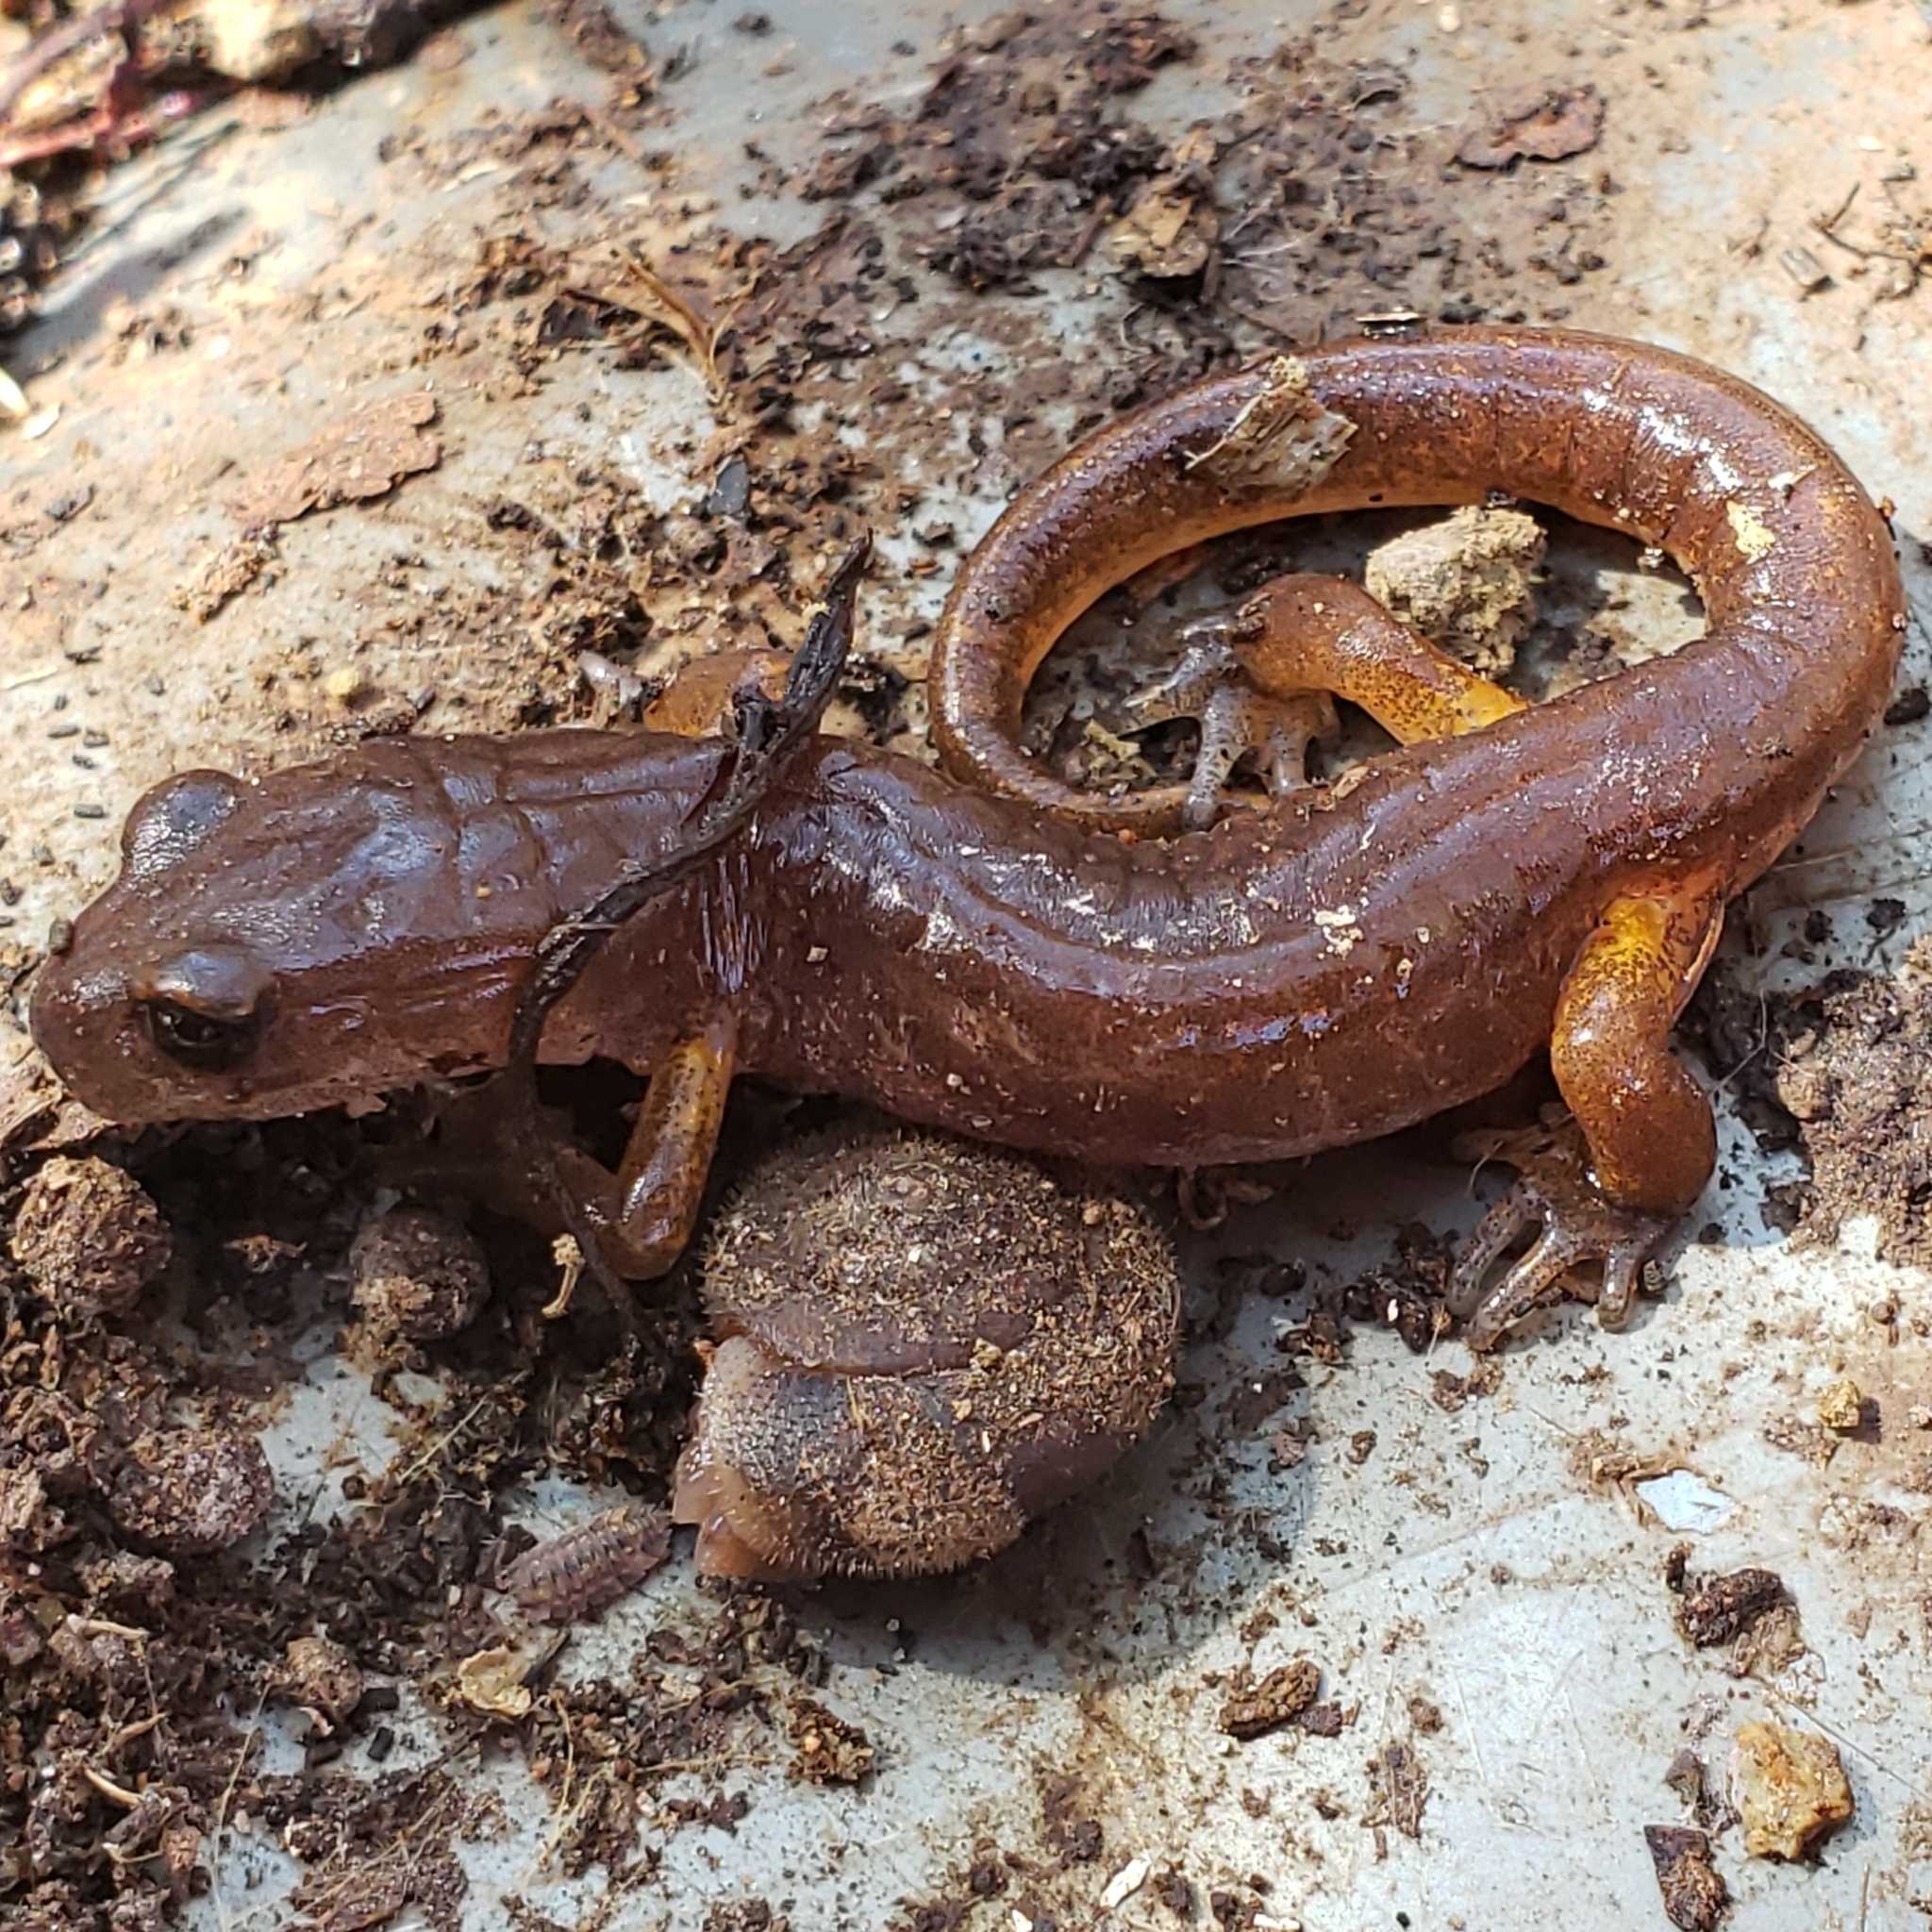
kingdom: Animalia
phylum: Chordata
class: Amphibia
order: Caudata
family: Plethodontidae
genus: Ensatina
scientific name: Ensatina eschscholtzii
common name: Ensatina
